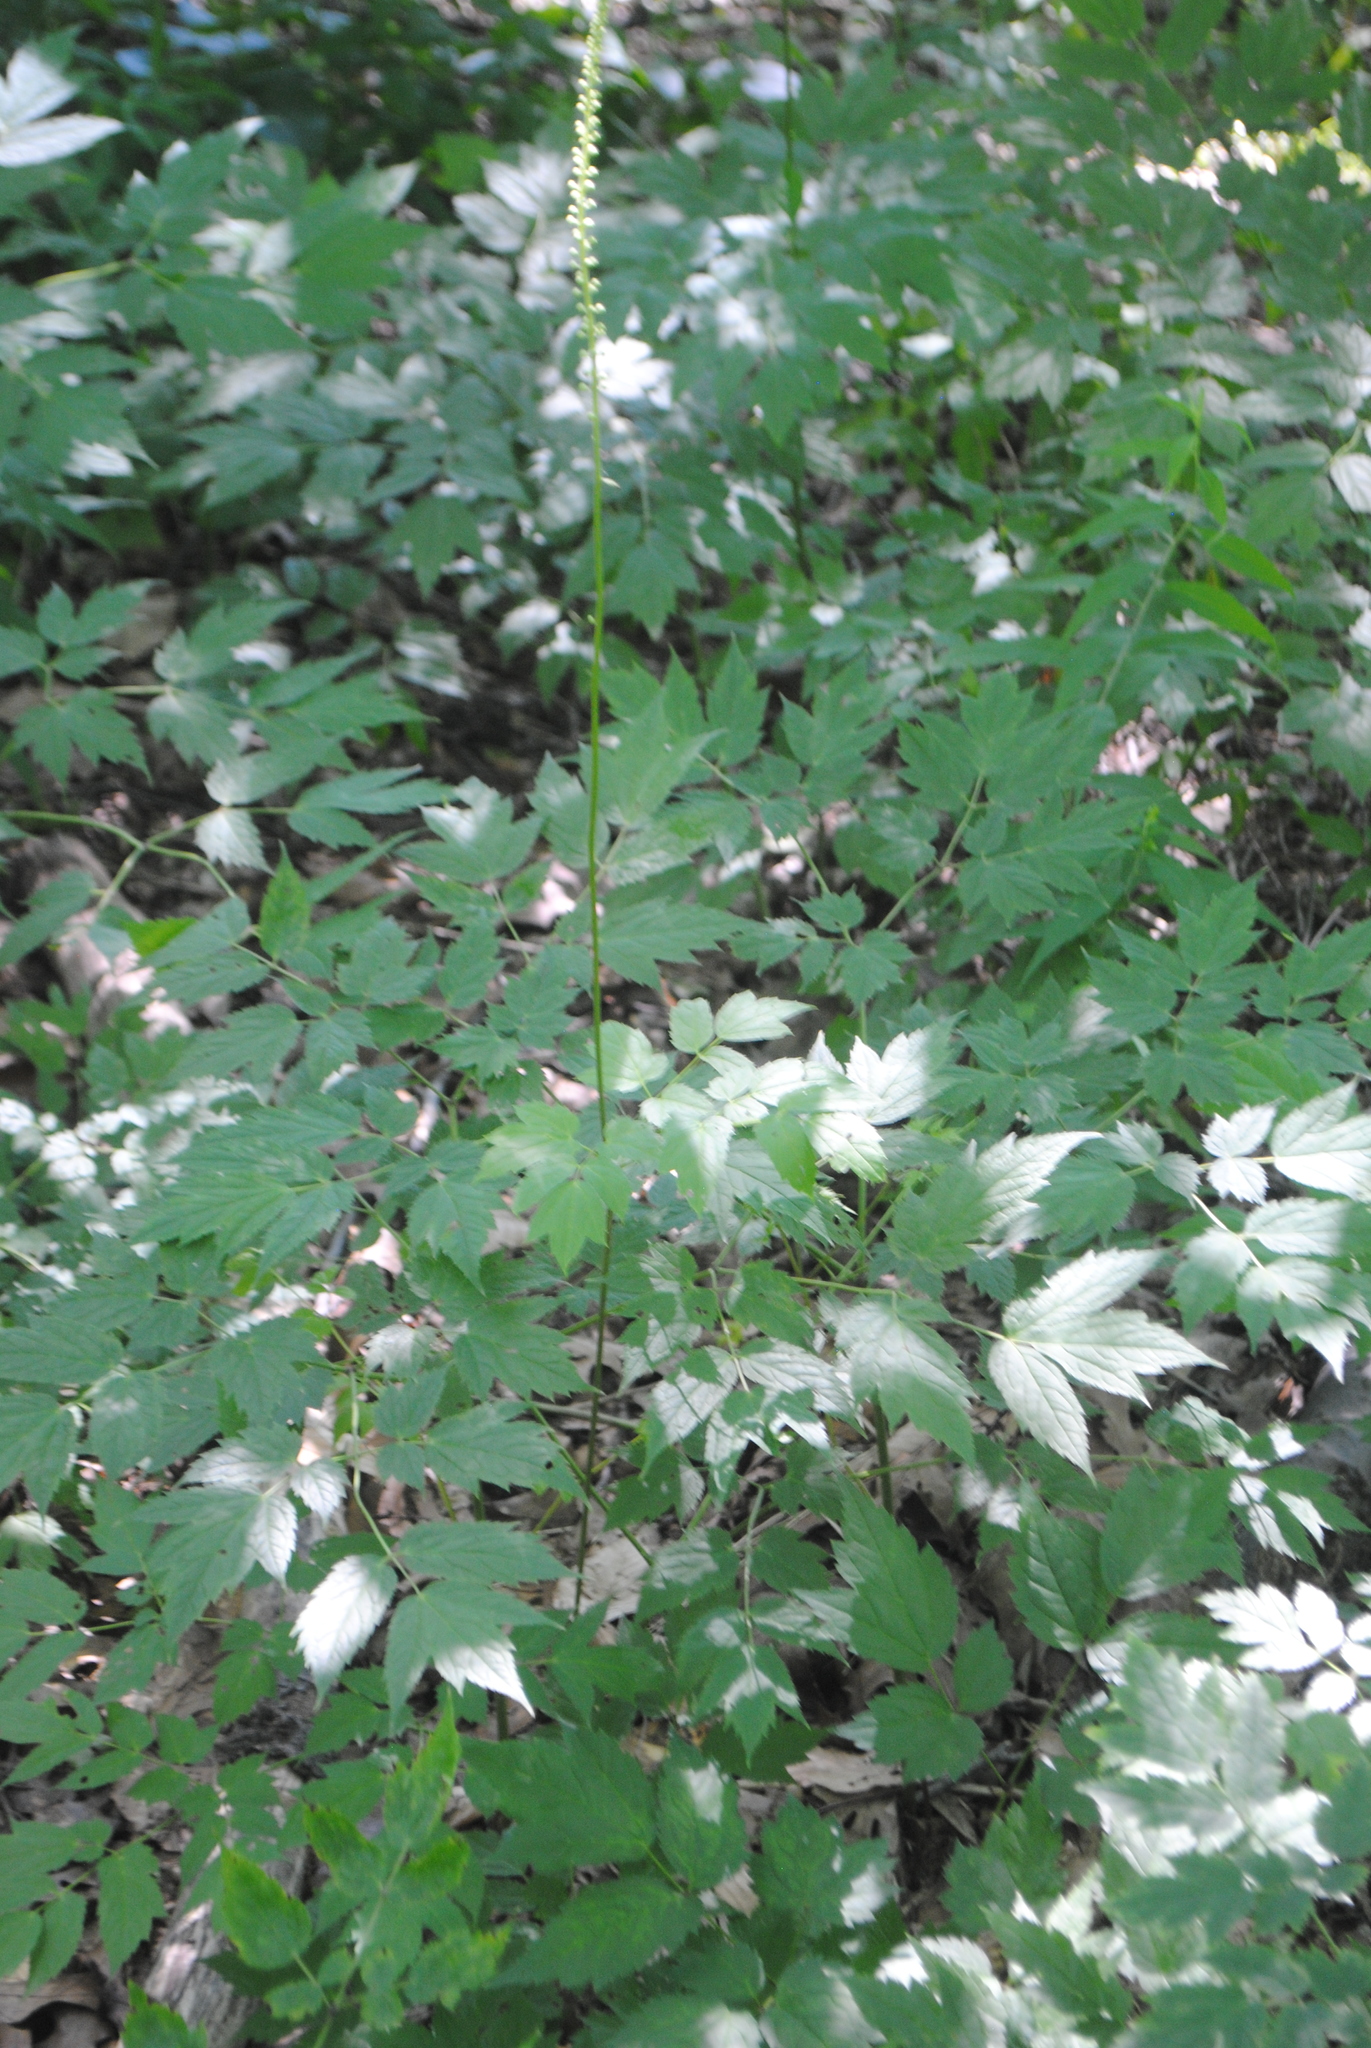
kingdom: Plantae
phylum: Tracheophyta
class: Magnoliopsida
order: Ranunculales
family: Ranunculaceae
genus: Actaea
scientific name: Actaea racemosa
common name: Black cohosh
